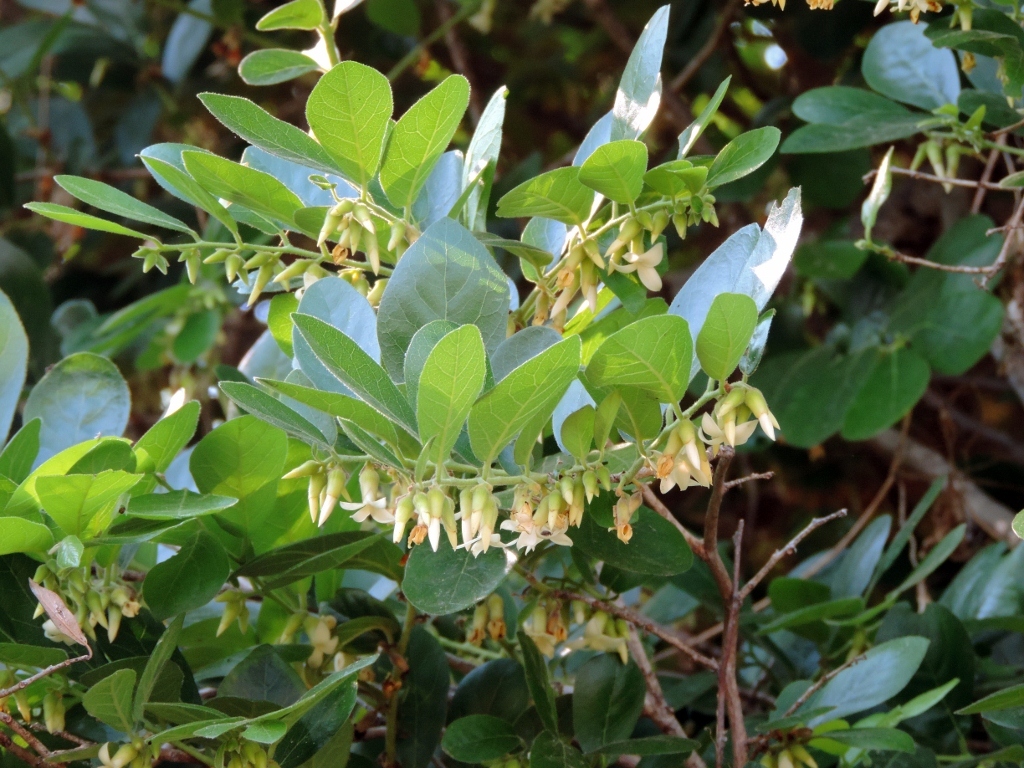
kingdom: Plantae
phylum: Tracheophyta
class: Magnoliopsida
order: Ericales
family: Ebenaceae
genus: Diospyros
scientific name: Diospyros senensis
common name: Spiny jackal berry
